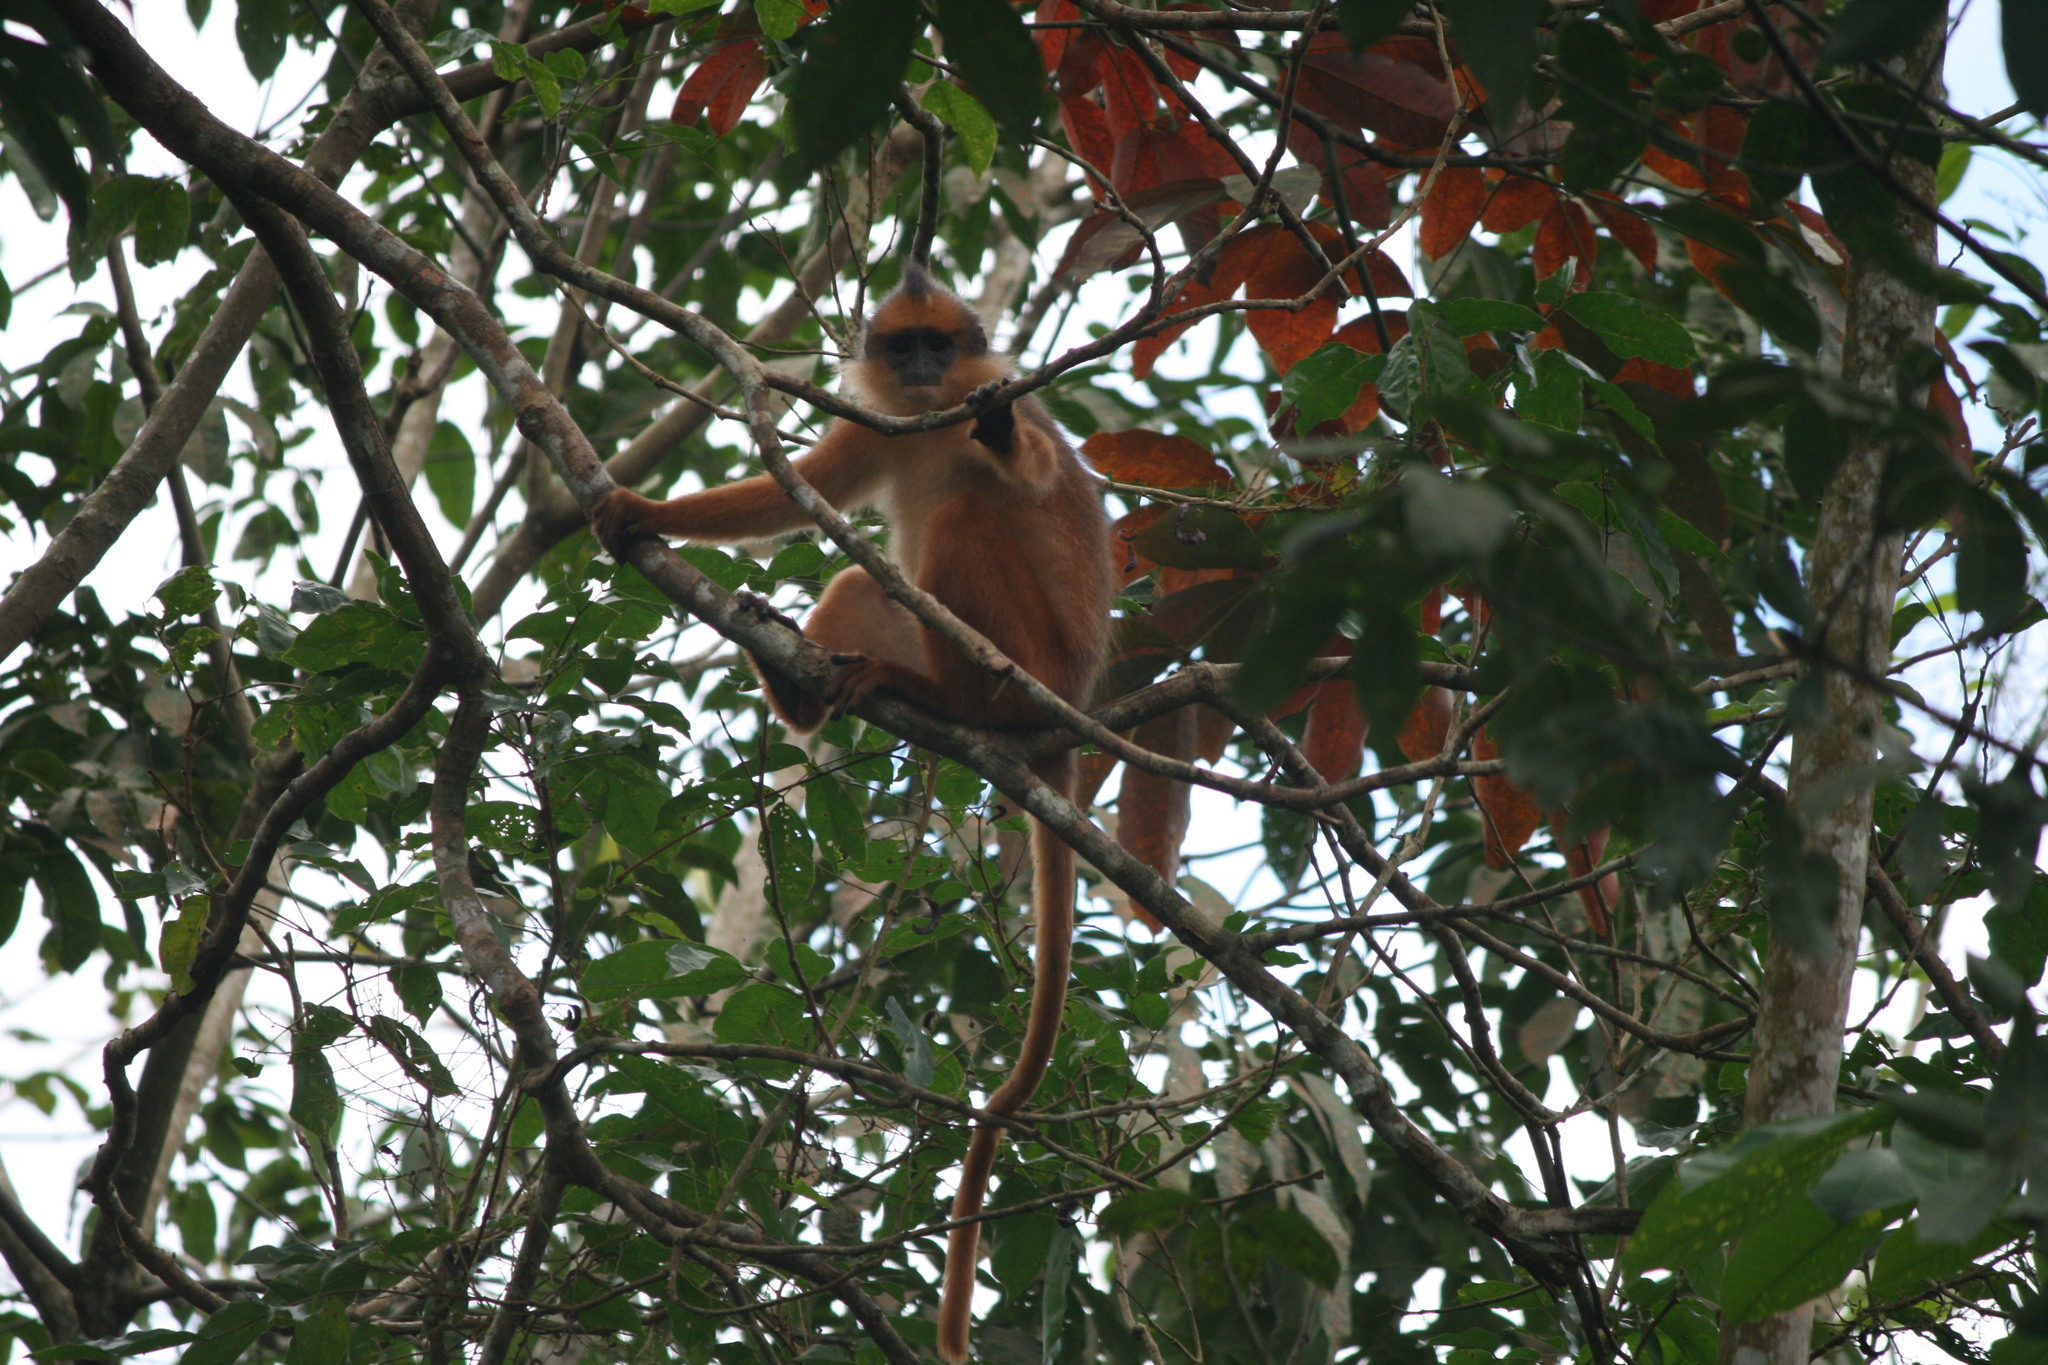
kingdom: Animalia
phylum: Chordata
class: Mammalia
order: Primates
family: Cercopithecidae
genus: Presbytis
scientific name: Presbytis melalophos
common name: Sumatran surili
